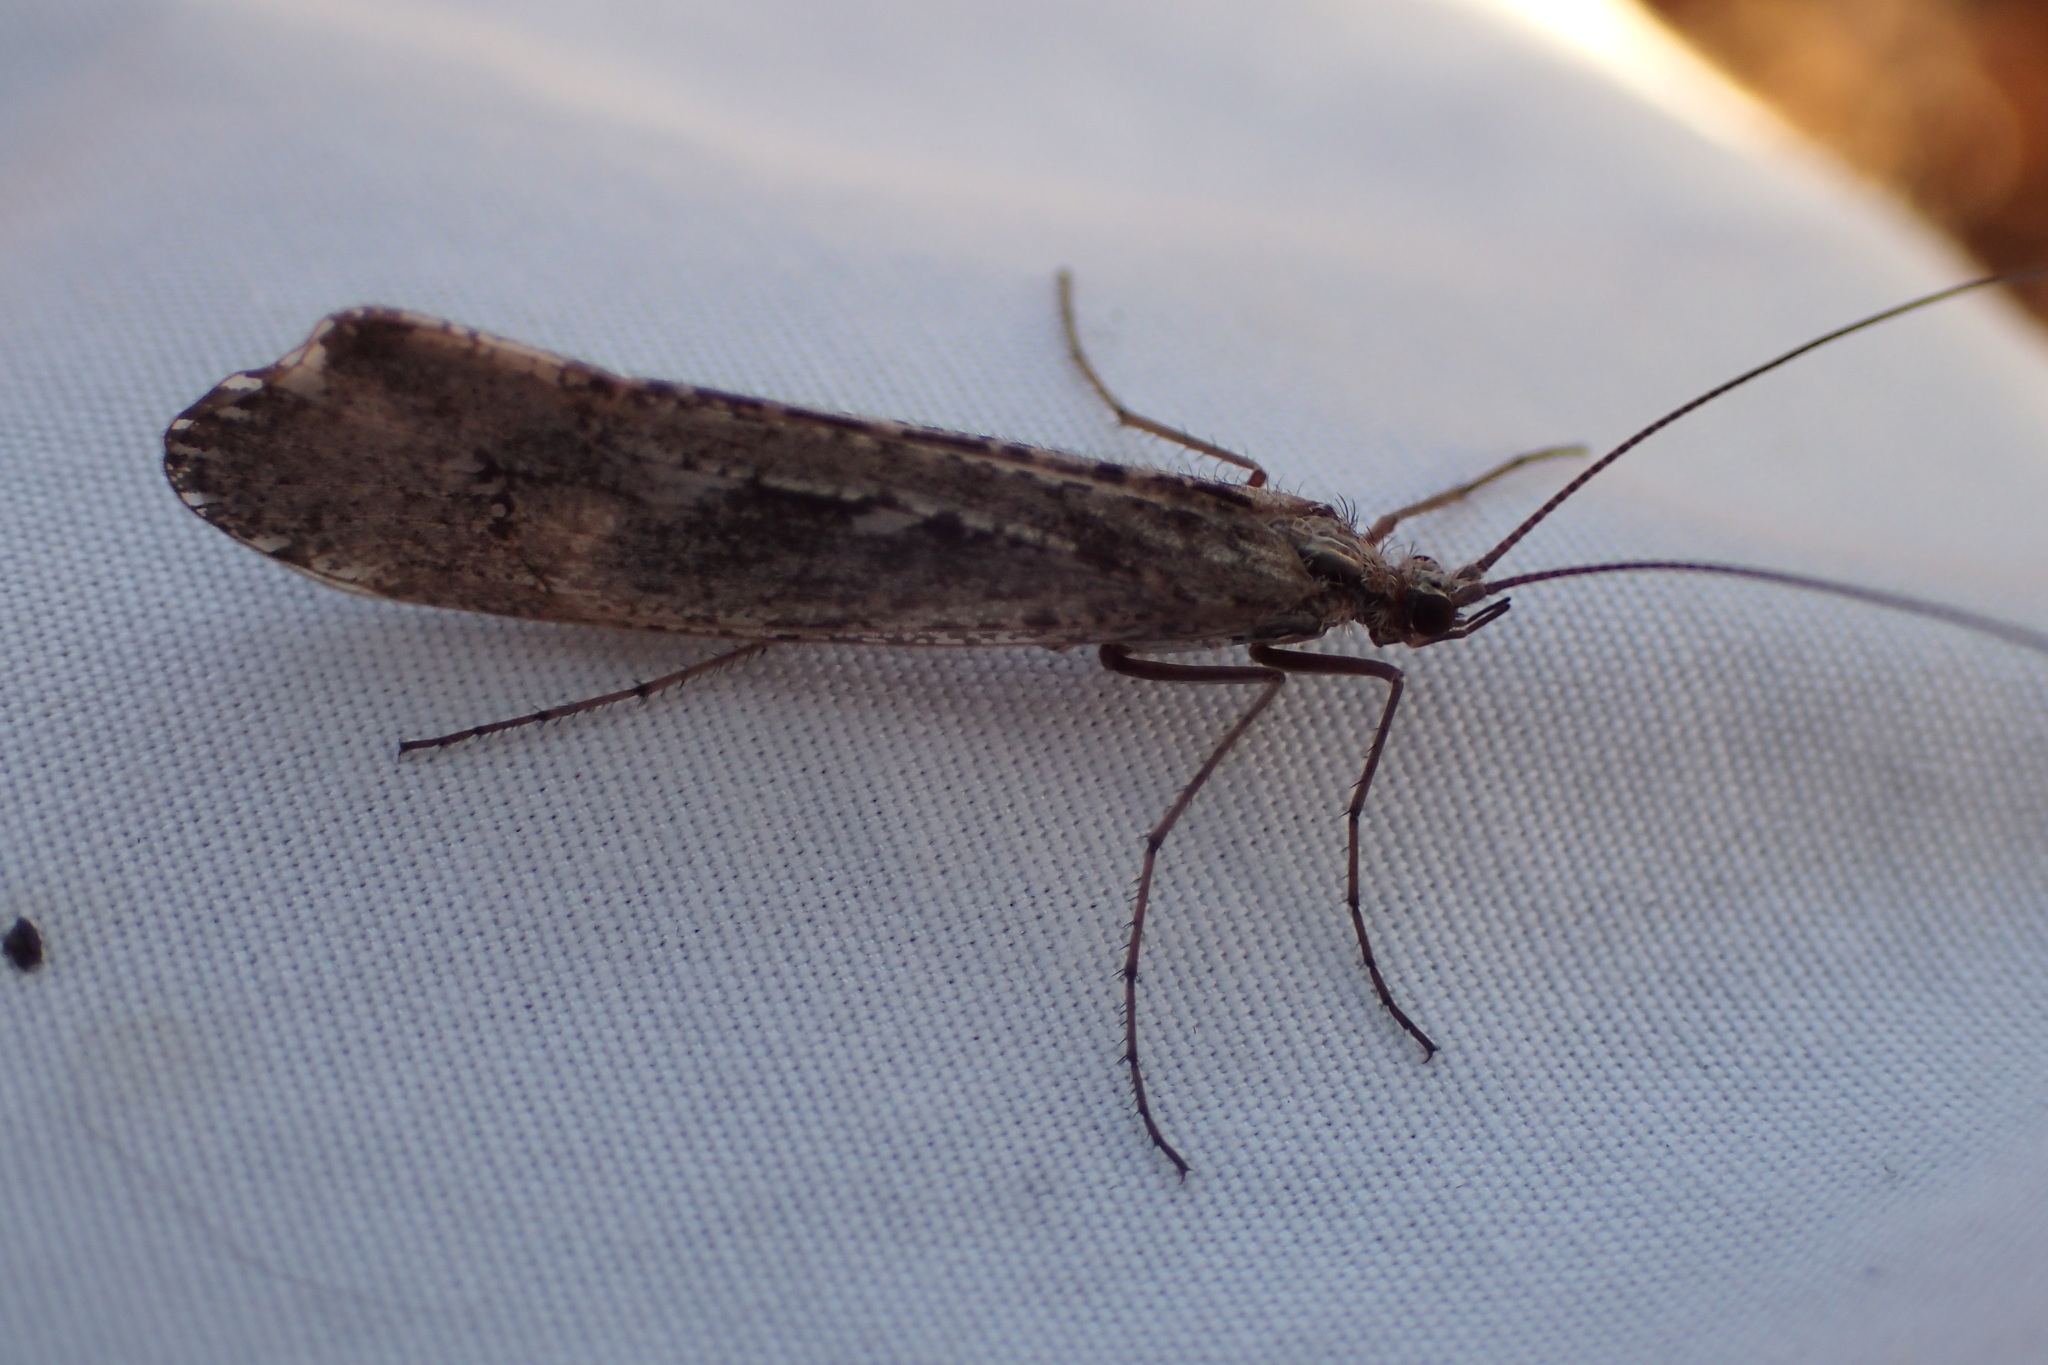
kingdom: Animalia
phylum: Arthropoda
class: Insecta
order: Trichoptera
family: Limnephilidae
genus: Glyphopsyche
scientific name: Glyphopsyche irrorata
